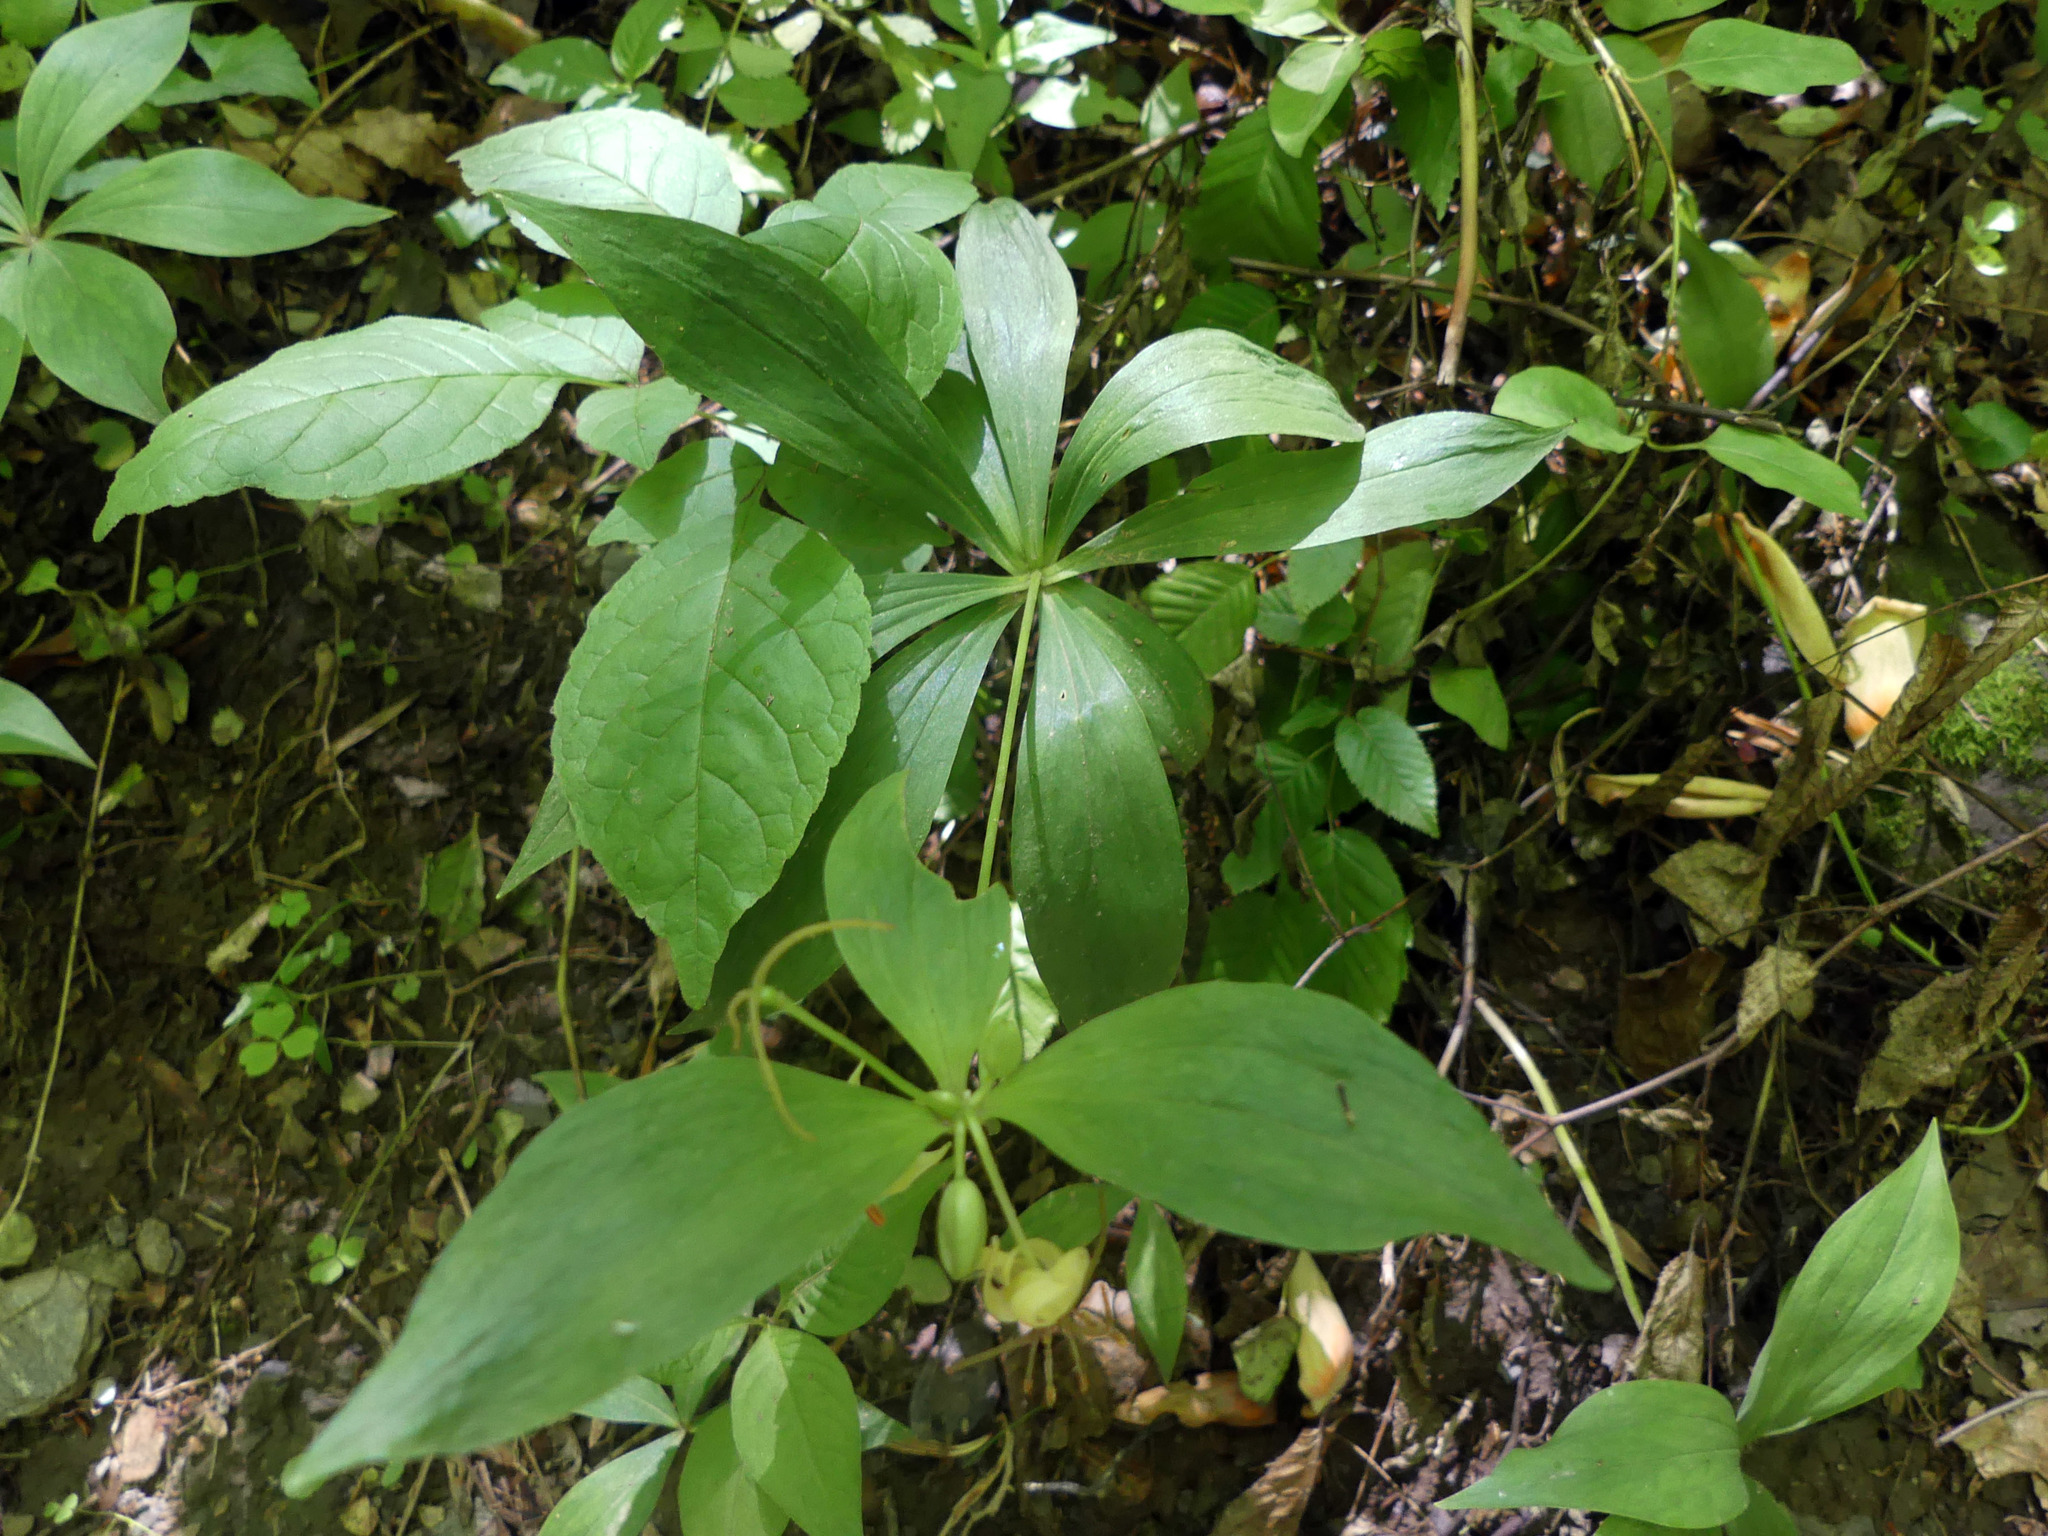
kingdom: Plantae
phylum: Tracheophyta
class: Liliopsida
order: Liliales
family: Liliaceae
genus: Medeola
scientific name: Medeola virginiana
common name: Indian cucumber-root
